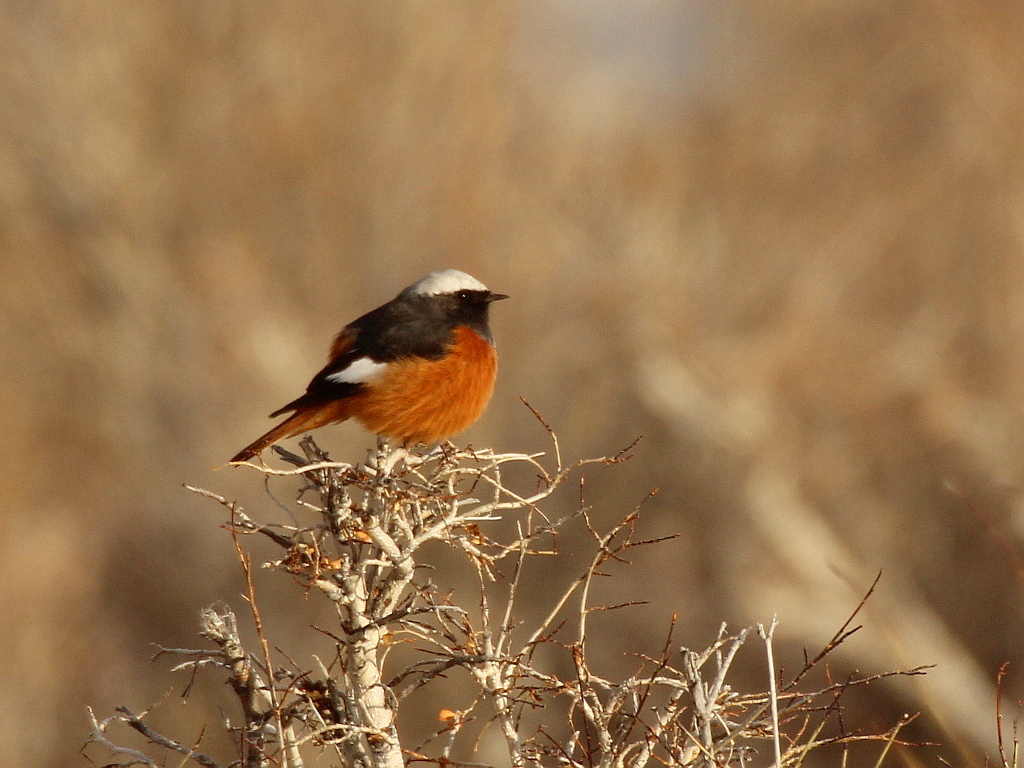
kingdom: Animalia
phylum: Chordata
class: Aves
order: Passeriformes
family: Muscicapidae
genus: Phoenicurus
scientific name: Phoenicurus erythrogastrus
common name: Güldenstädt's redstart
